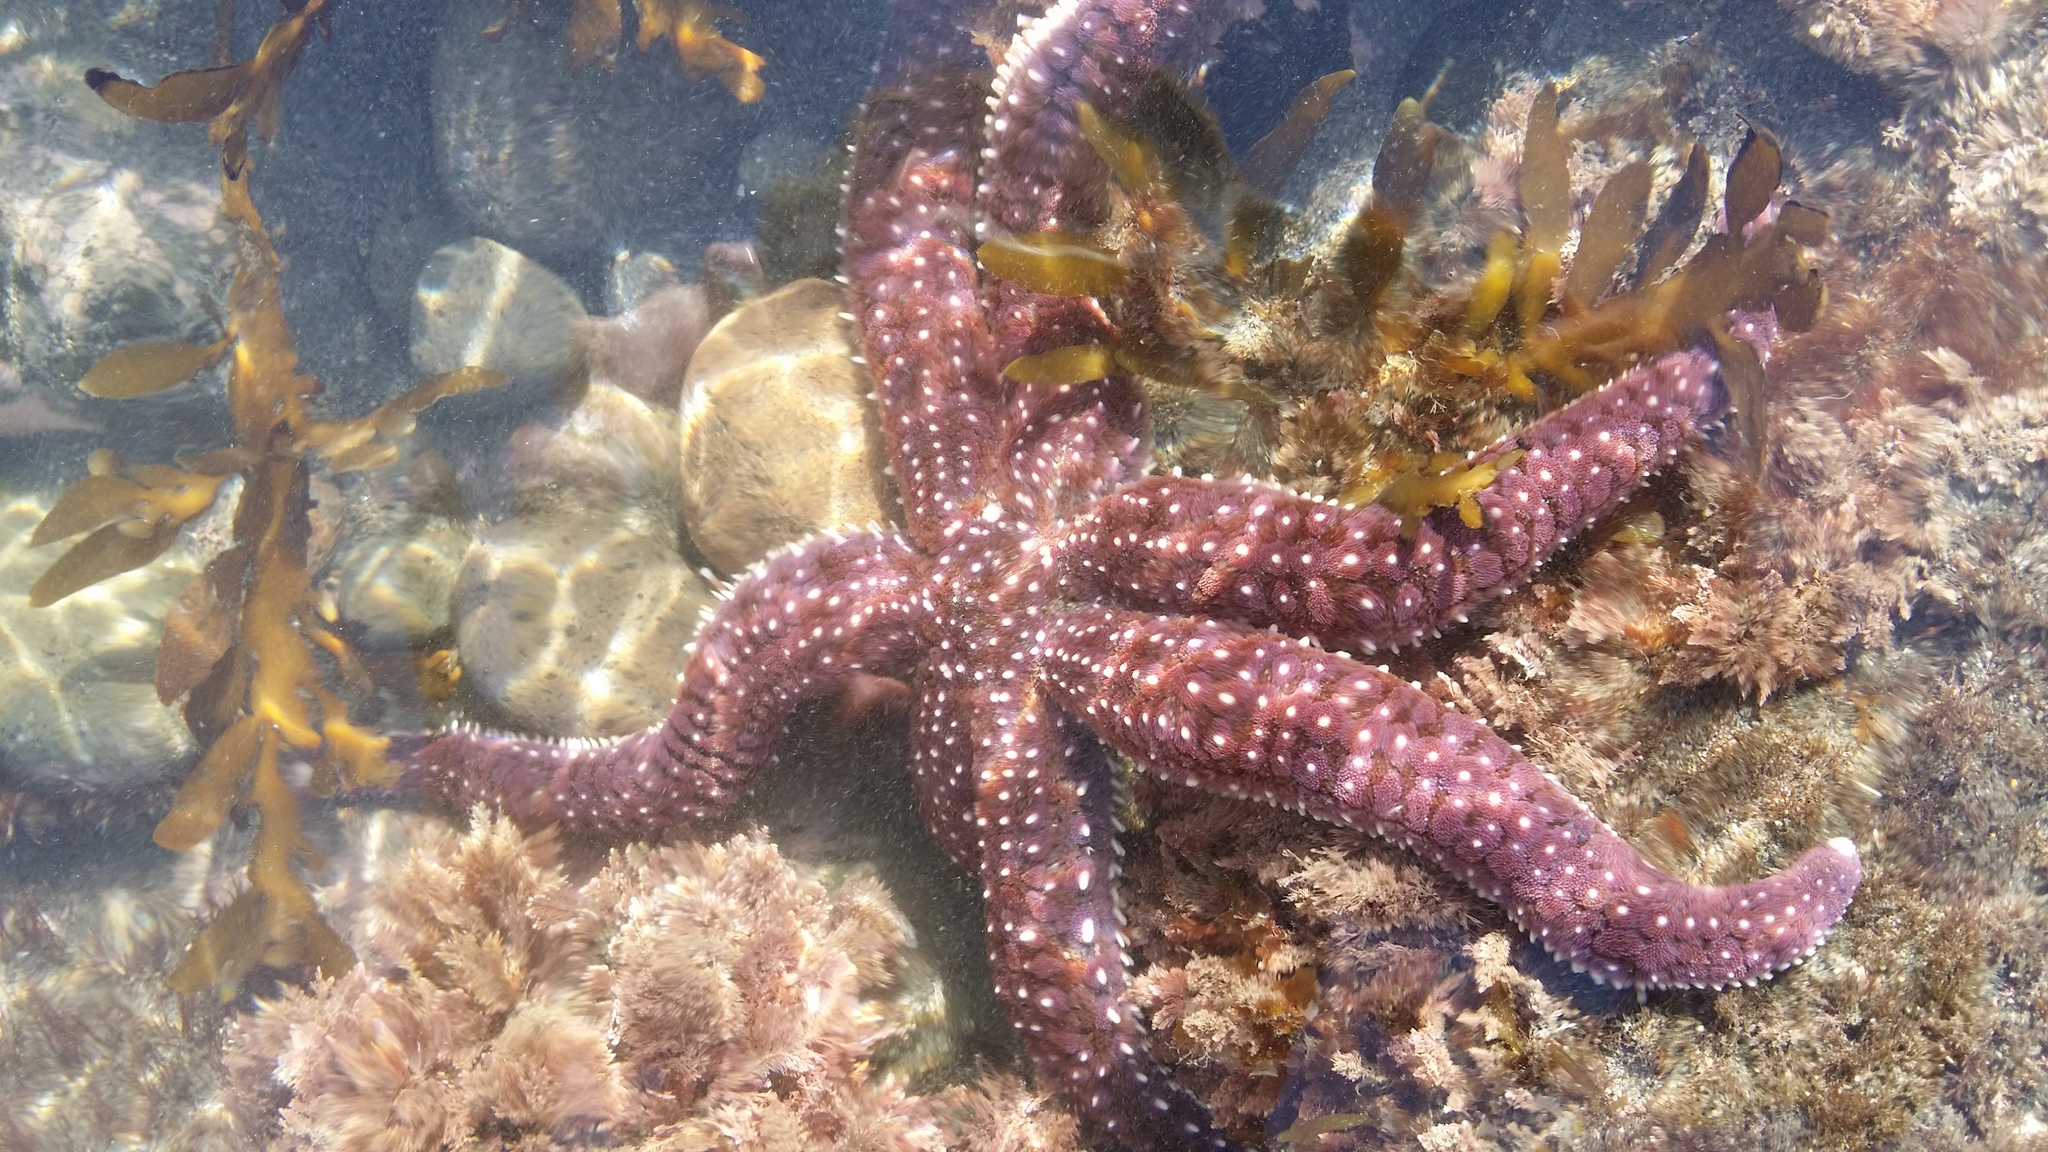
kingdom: Animalia
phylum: Echinodermata
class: Asteroidea
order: Forcipulatida
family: Asteriidae
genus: Astrostole
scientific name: Astrostole scabra
